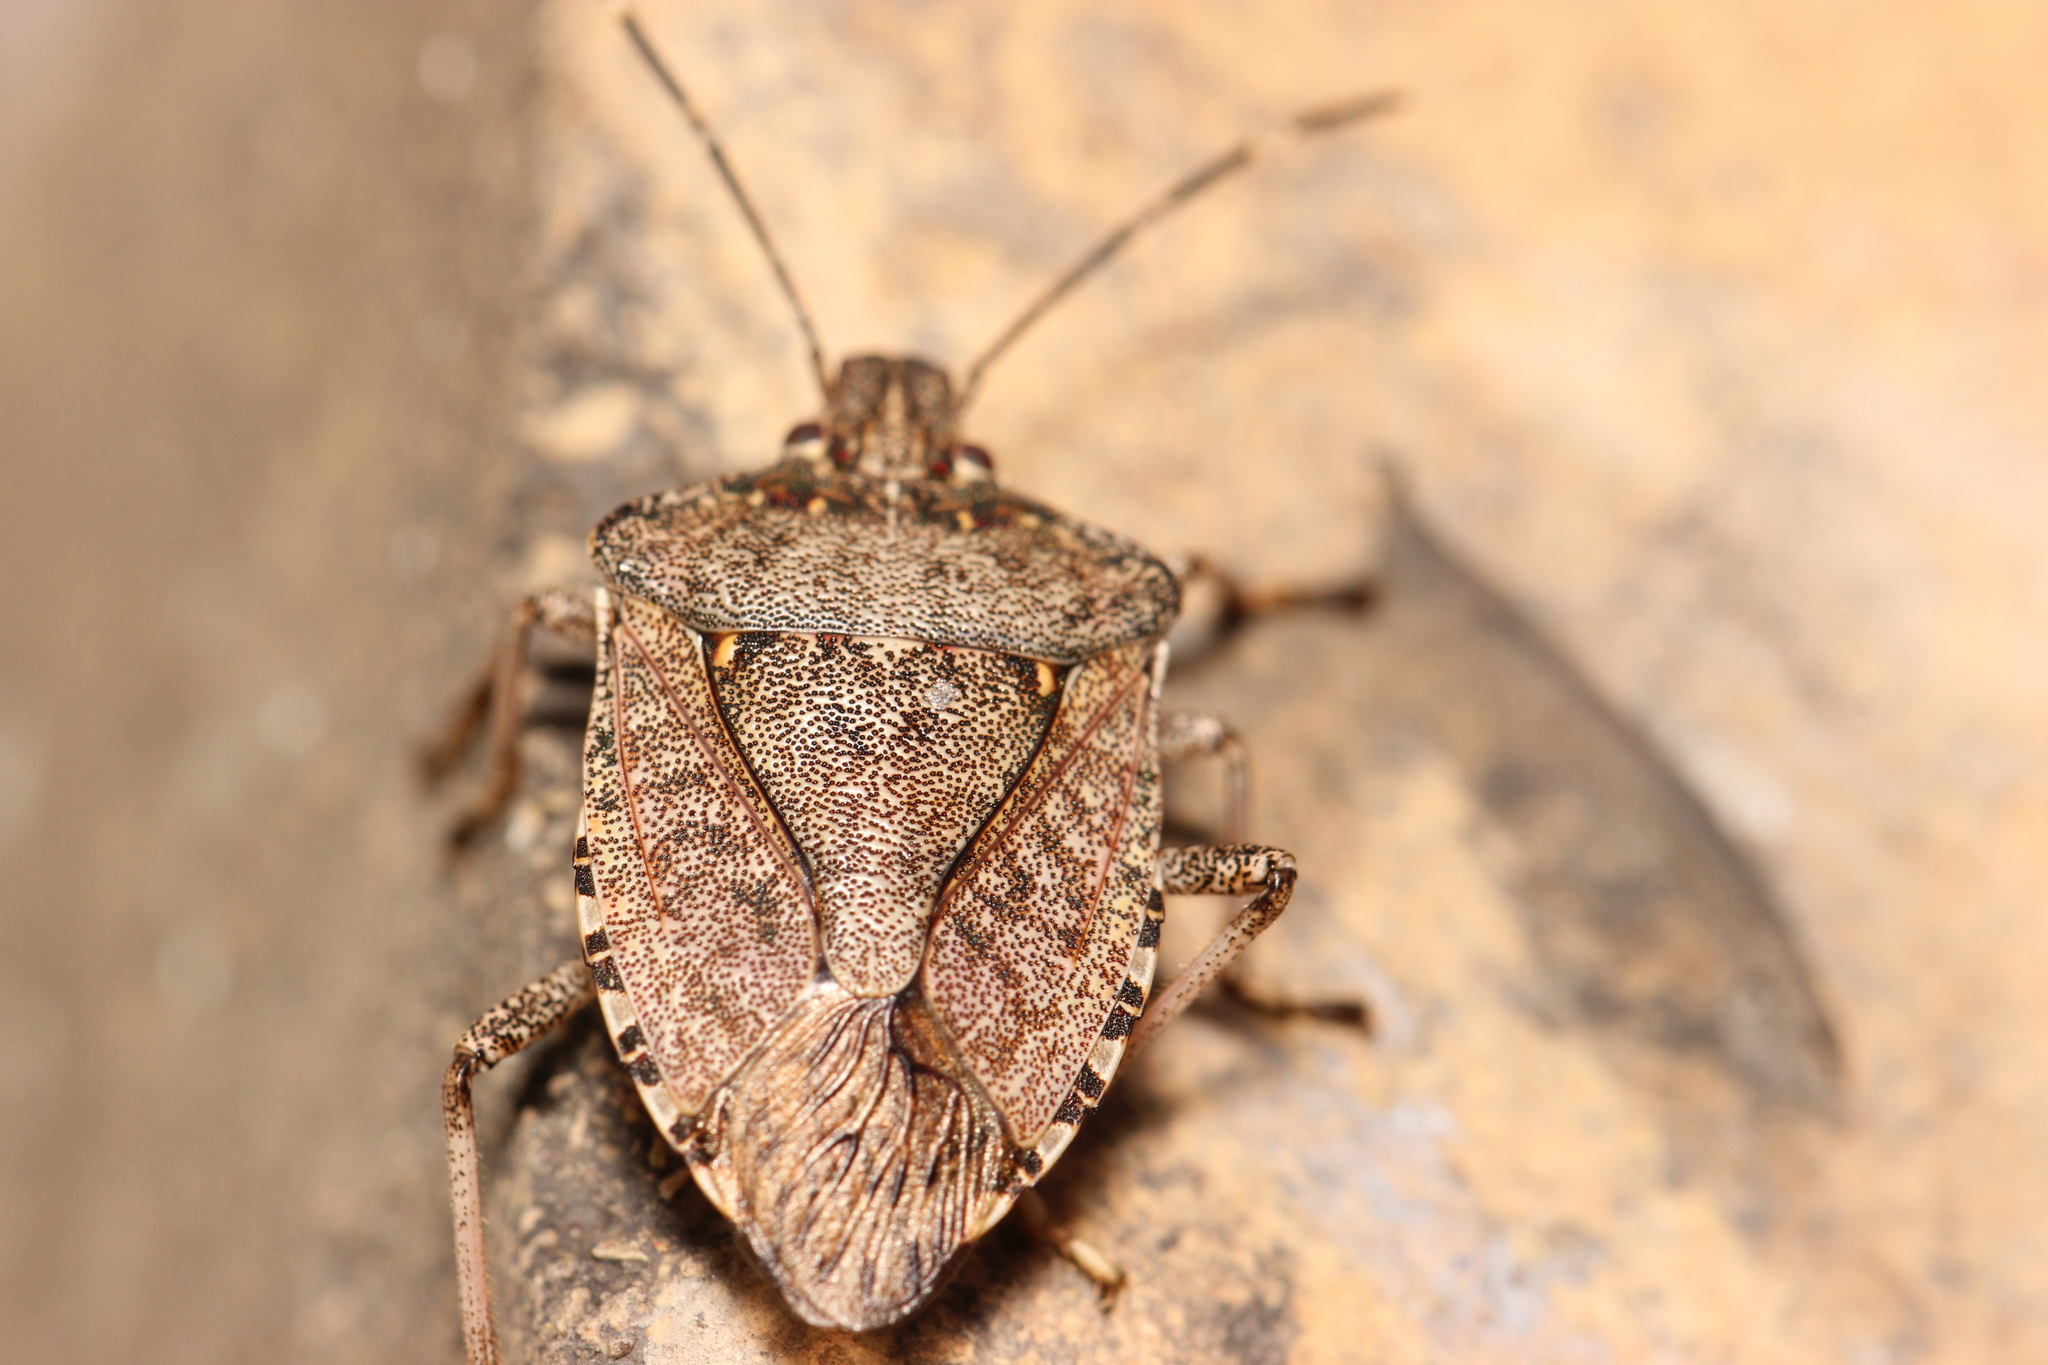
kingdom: Animalia
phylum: Arthropoda
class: Insecta
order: Hemiptera
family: Pentatomidae
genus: Halyomorpha
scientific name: Halyomorpha halys
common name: Brown marmorated stink bug
